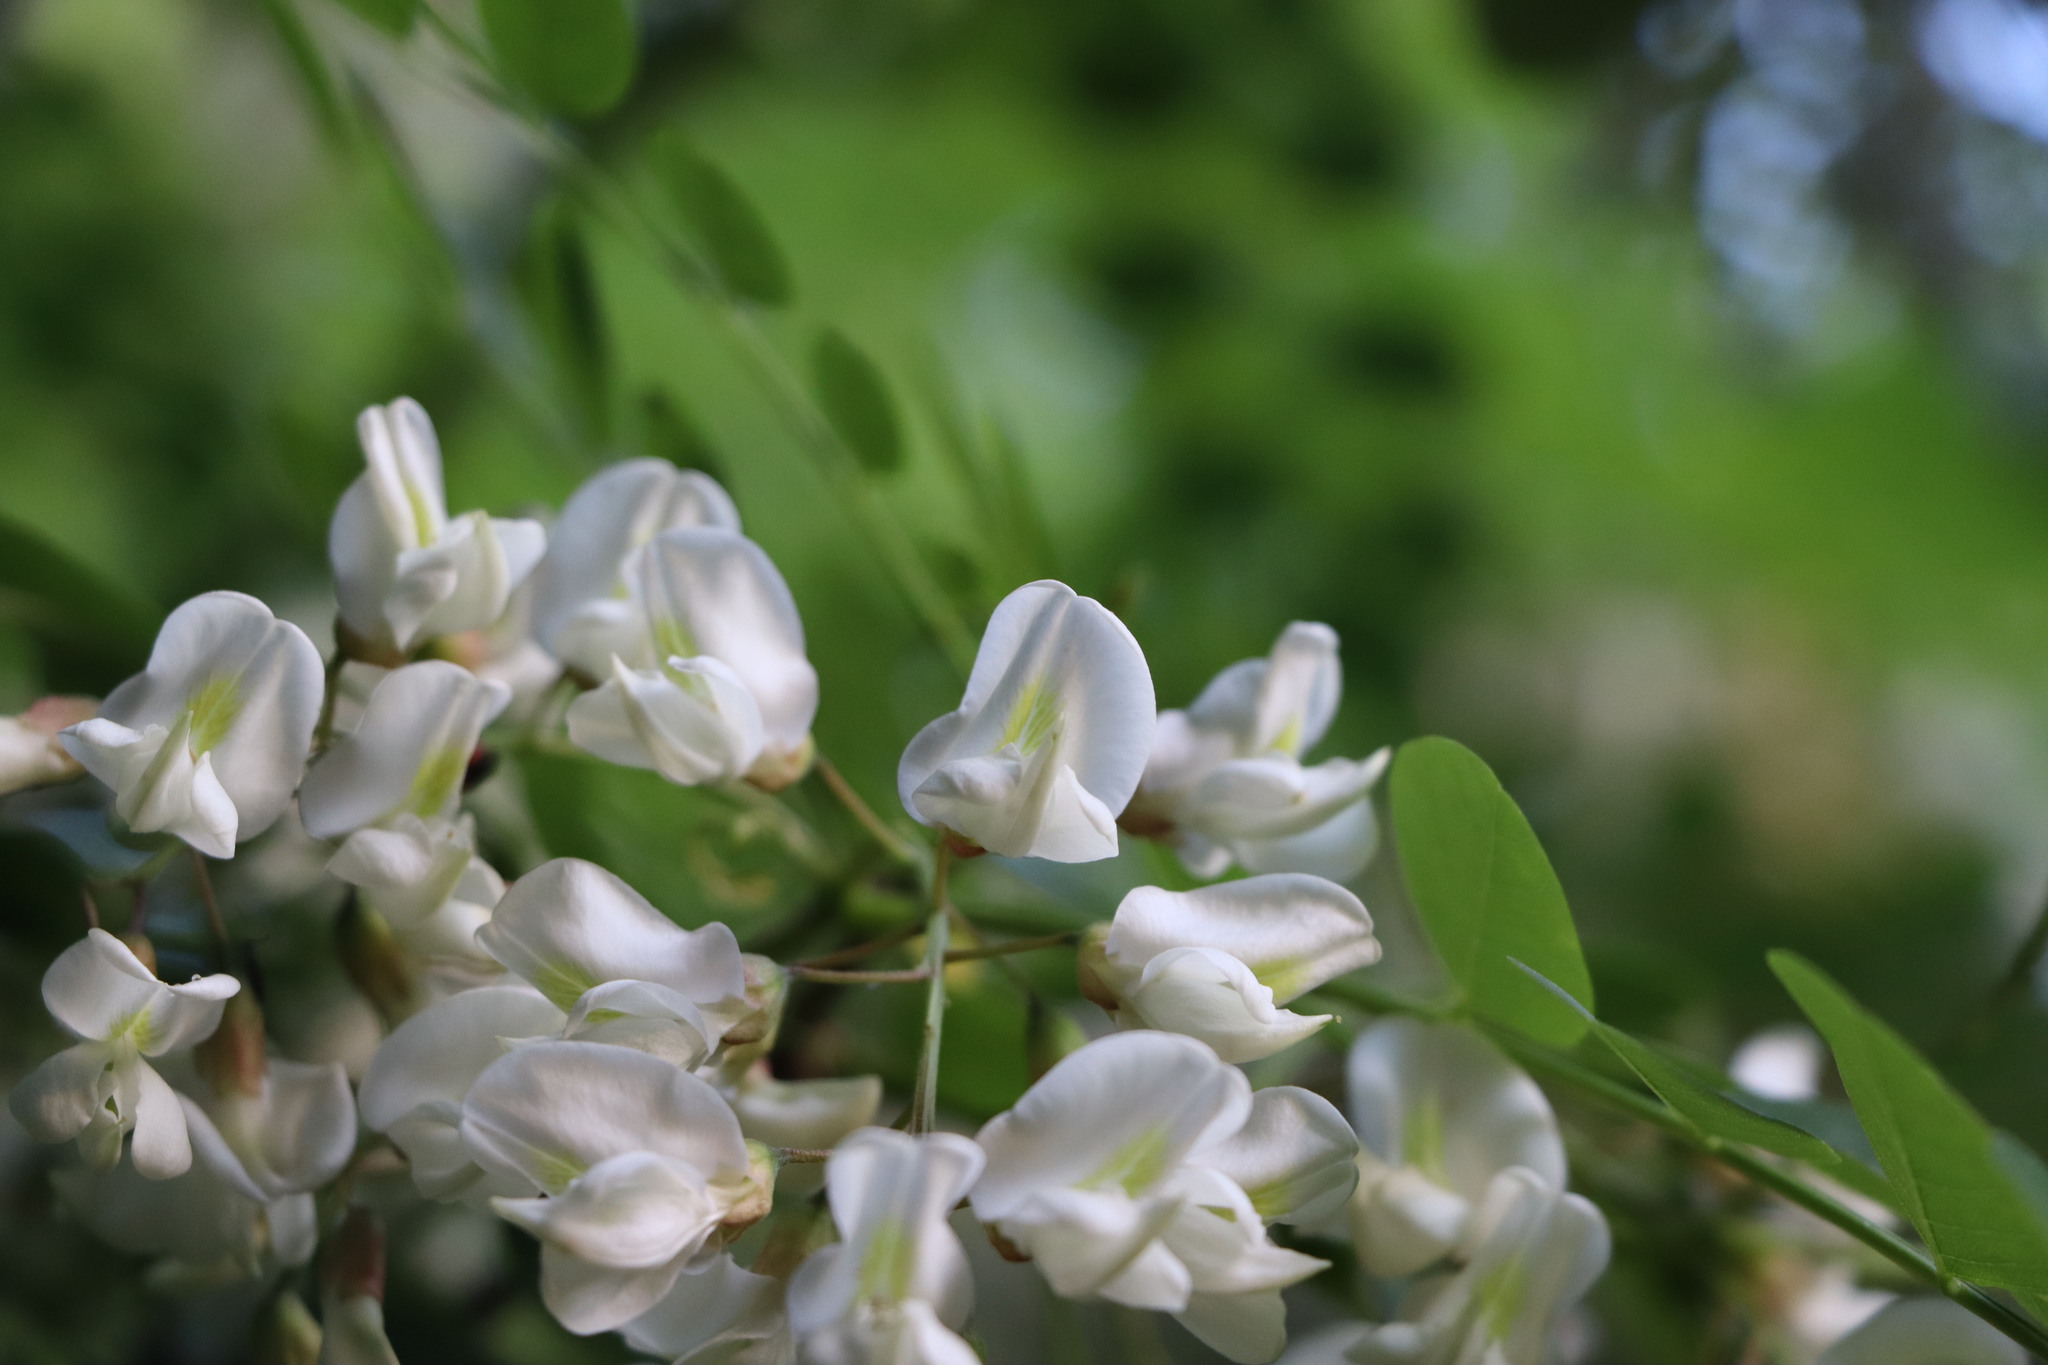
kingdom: Plantae
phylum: Tracheophyta
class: Magnoliopsida
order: Fabales
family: Fabaceae
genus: Robinia
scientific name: Robinia pseudoacacia
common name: Black locust
